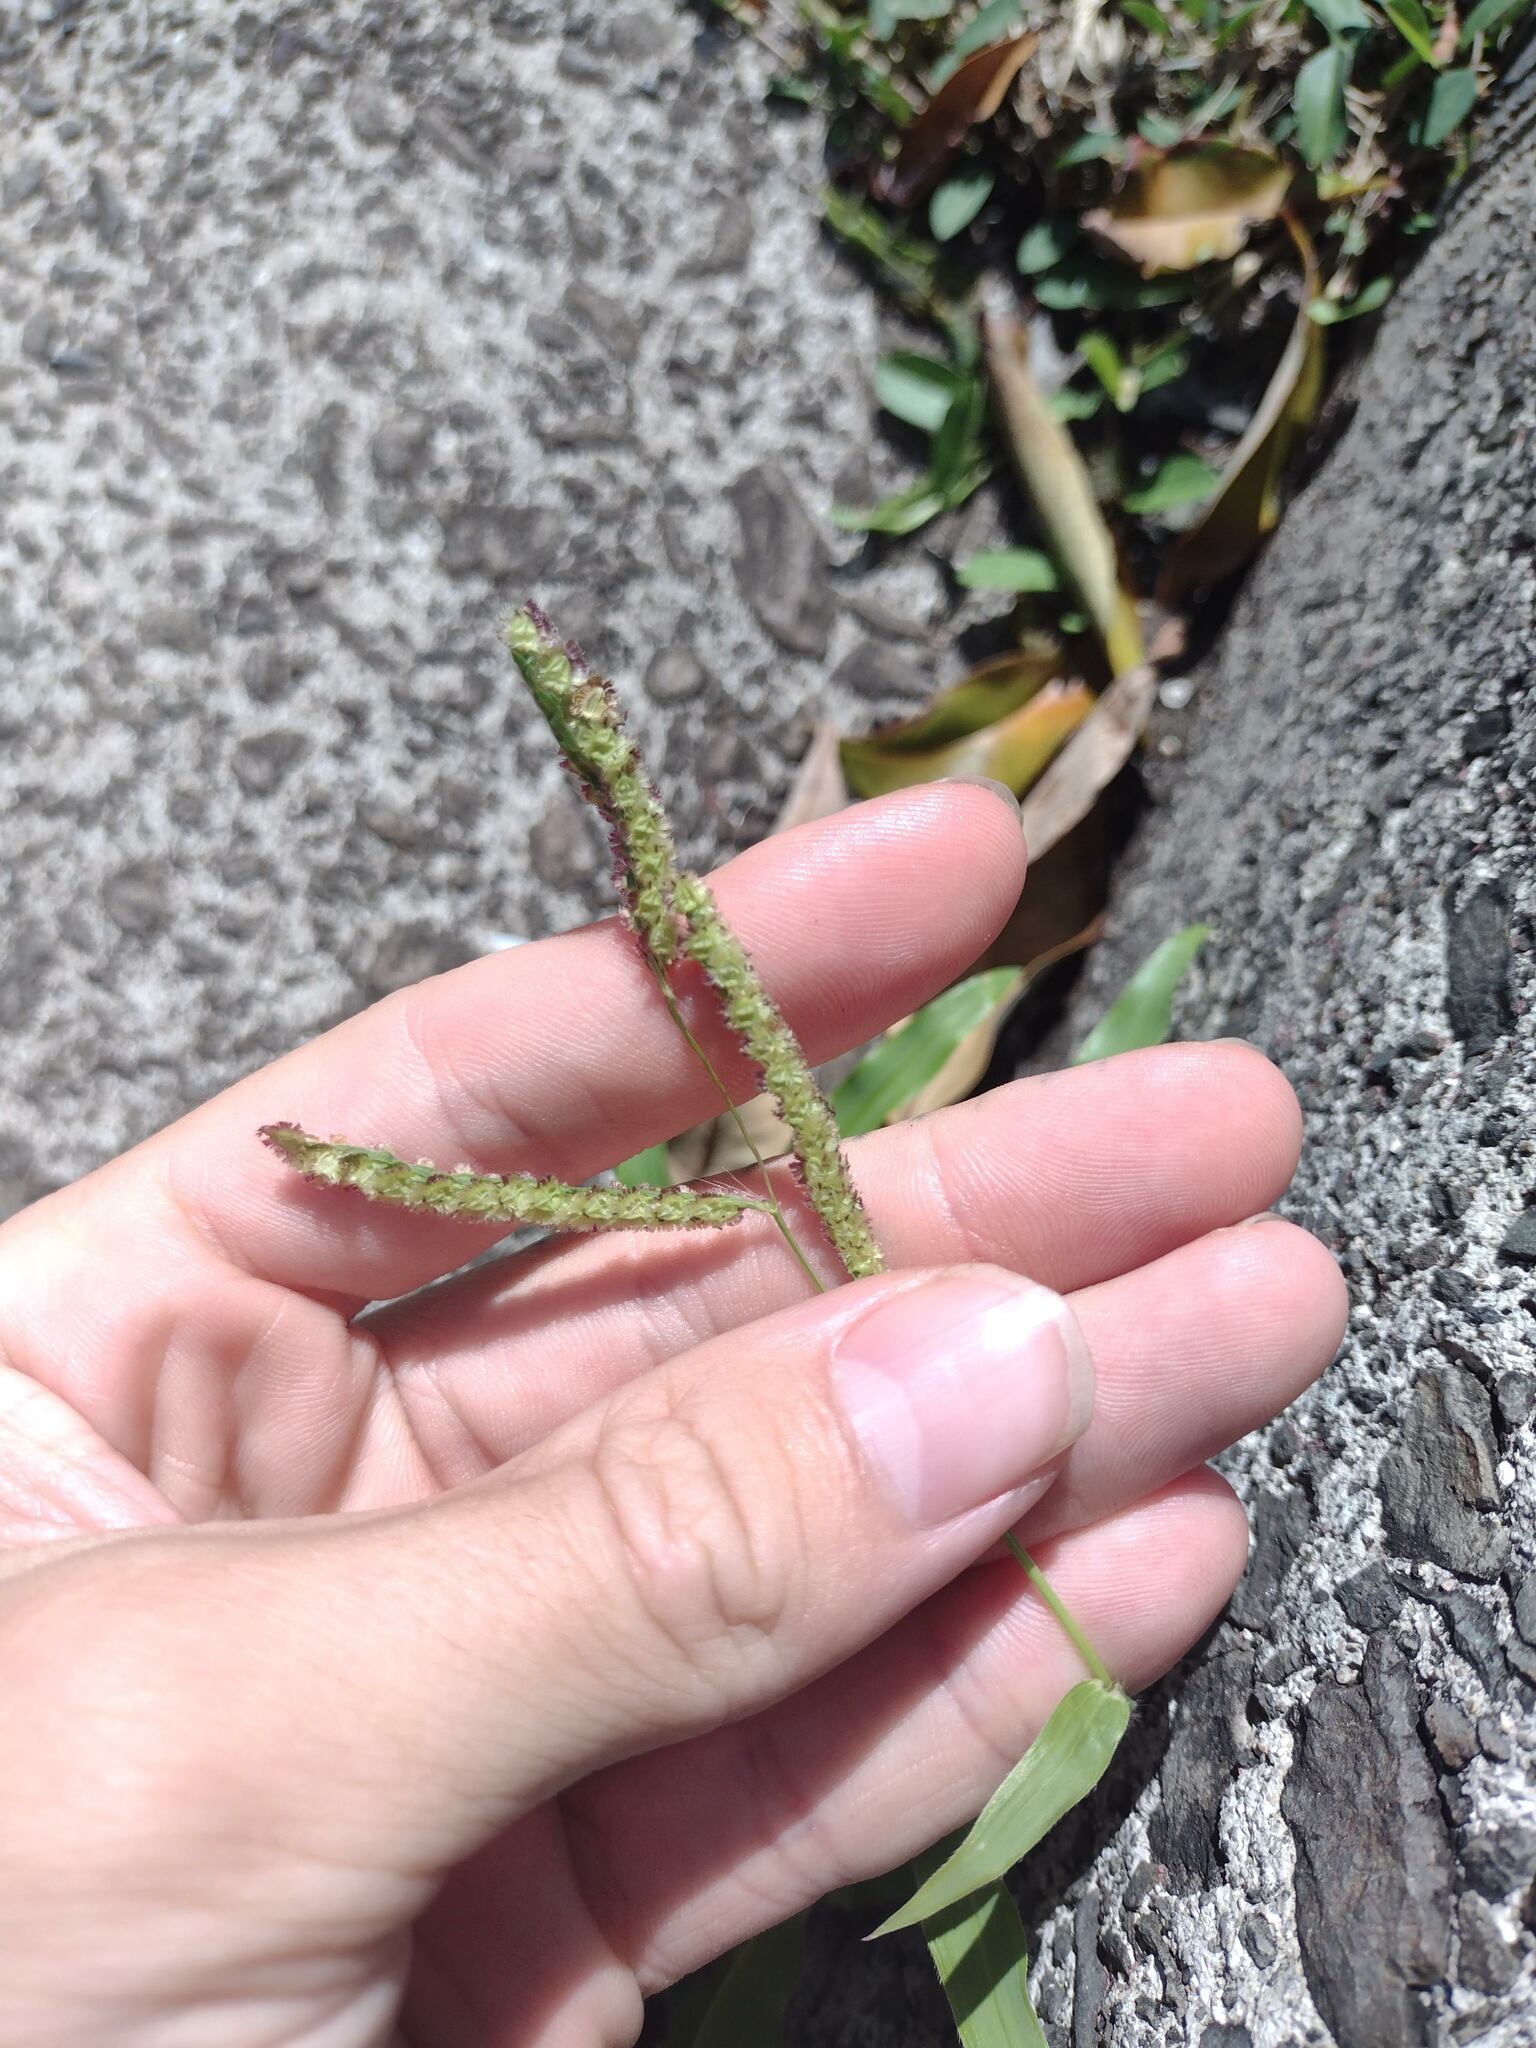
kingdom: Plantae
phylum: Tracheophyta
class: Liliopsida
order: Poales
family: Poaceae
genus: Paspalum
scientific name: Paspalum fimbriatum
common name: Panama crowngrass
